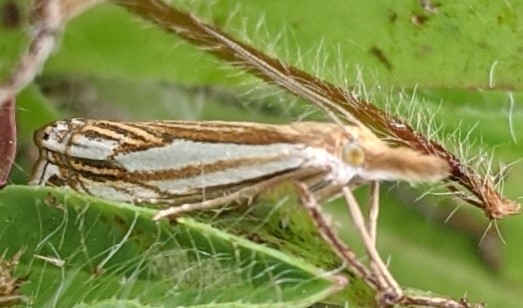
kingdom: Animalia
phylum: Arthropoda
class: Insecta
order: Lepidoptera
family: Crambidae
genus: Crambus
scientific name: Crambus saltuellus
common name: Pasture grass-veneer
